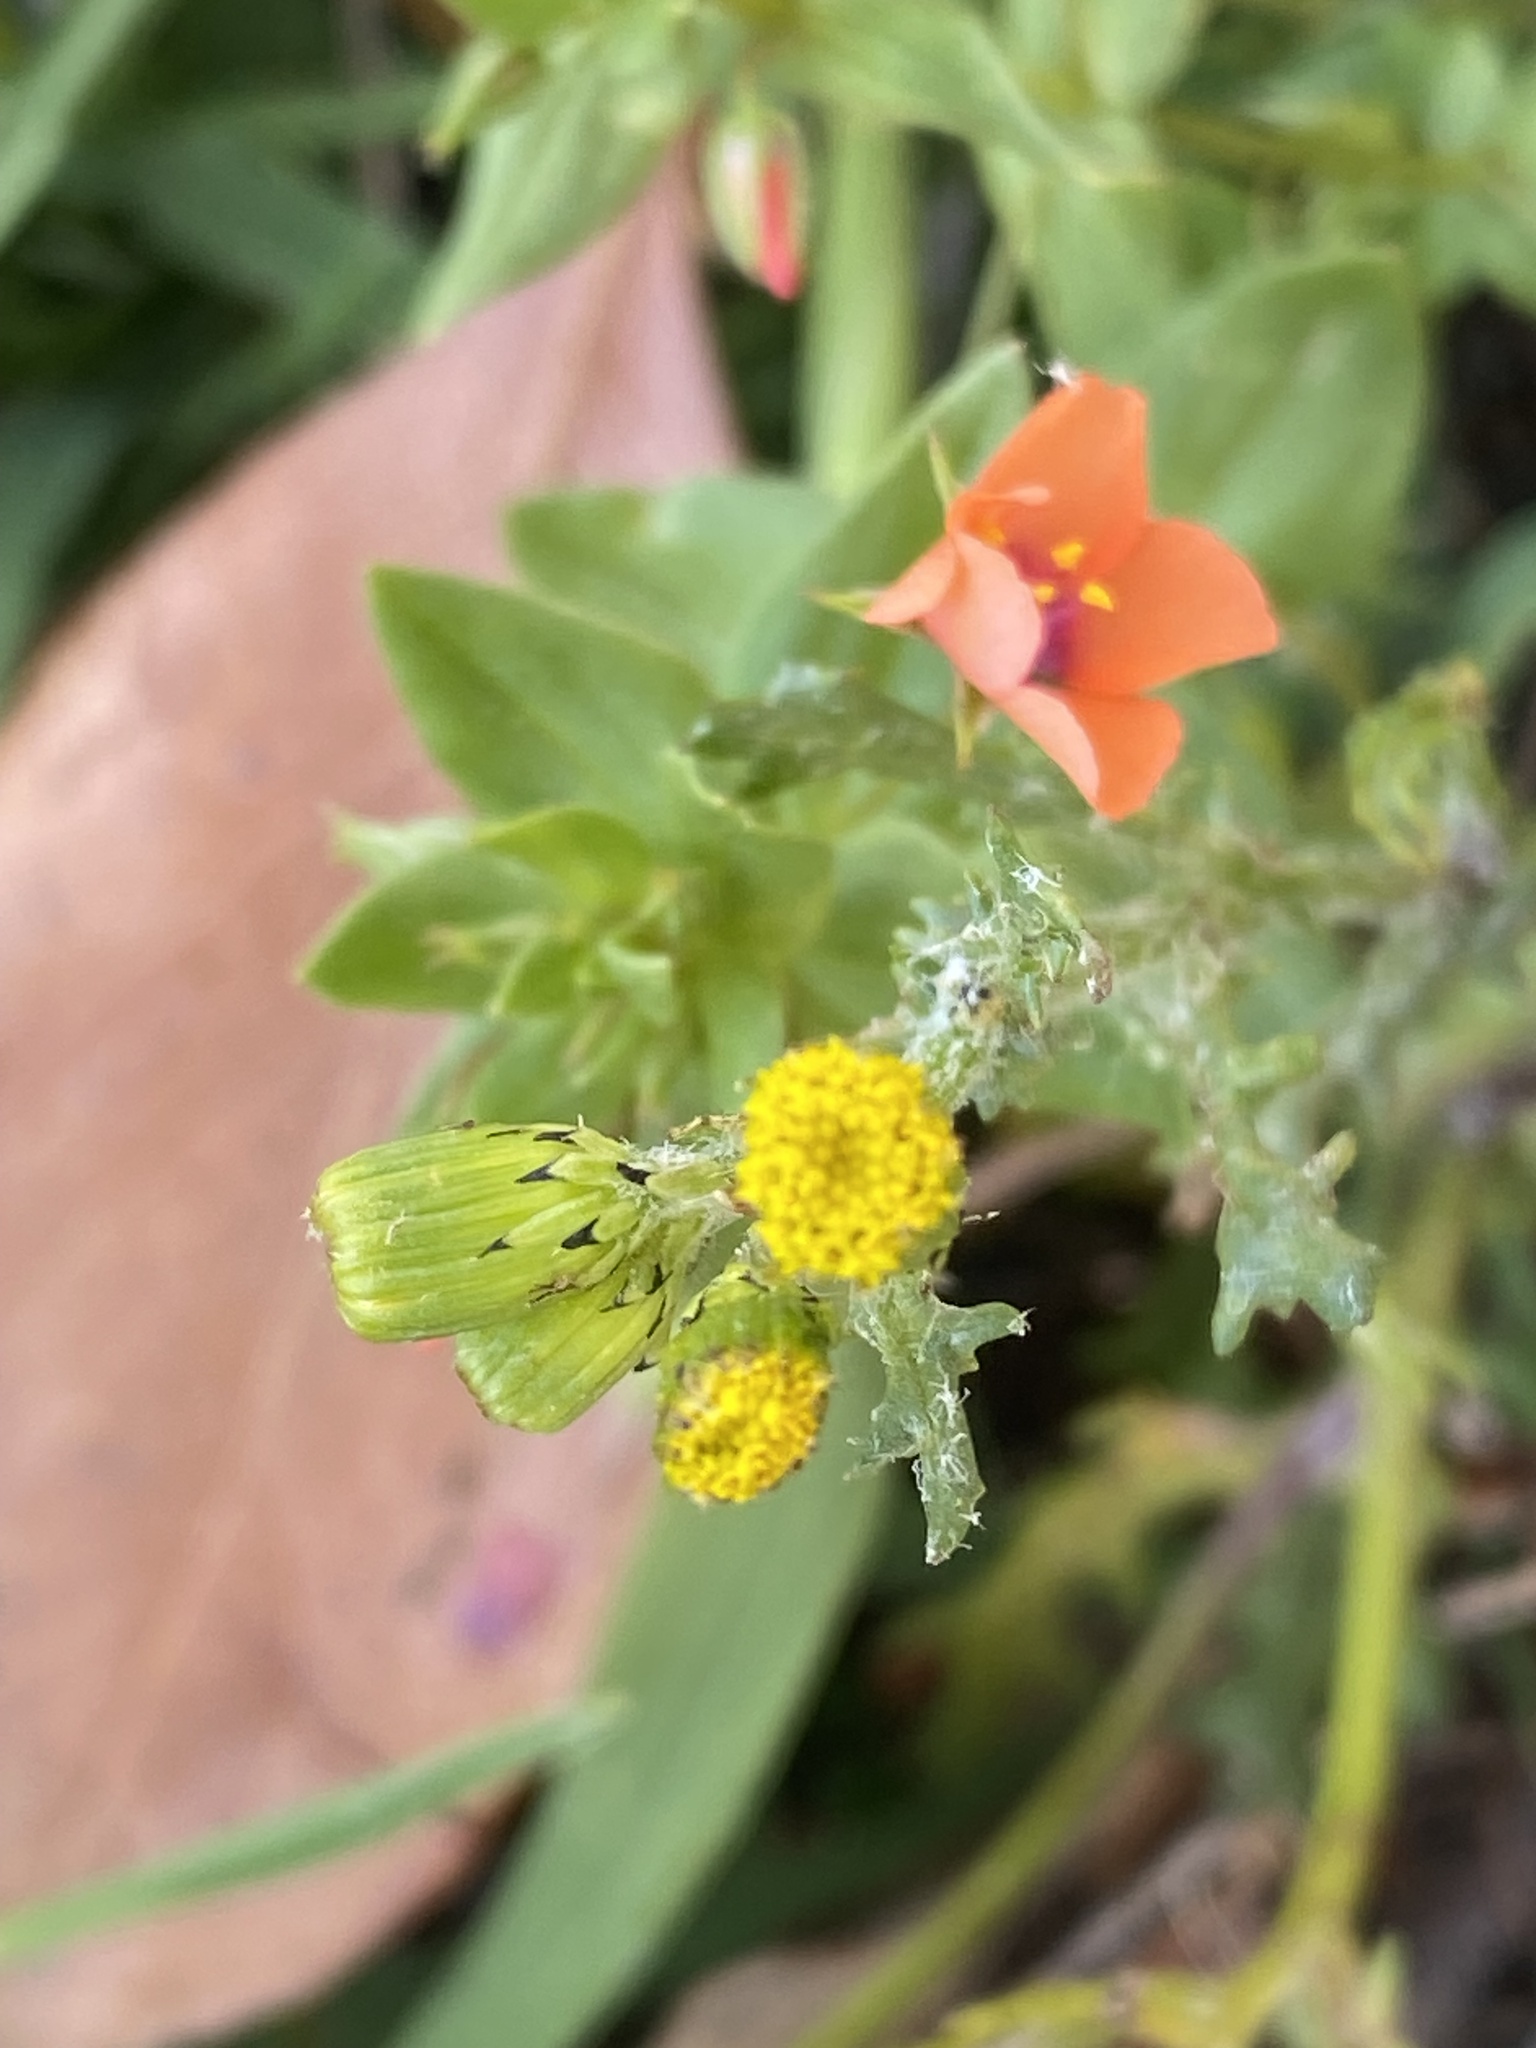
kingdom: Plantae
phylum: Tracheophyta
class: Magnoliopsida
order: Asterales
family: Asteraceae
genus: Senecio
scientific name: Senecio vulgaris
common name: Old-man-in-the-spring
